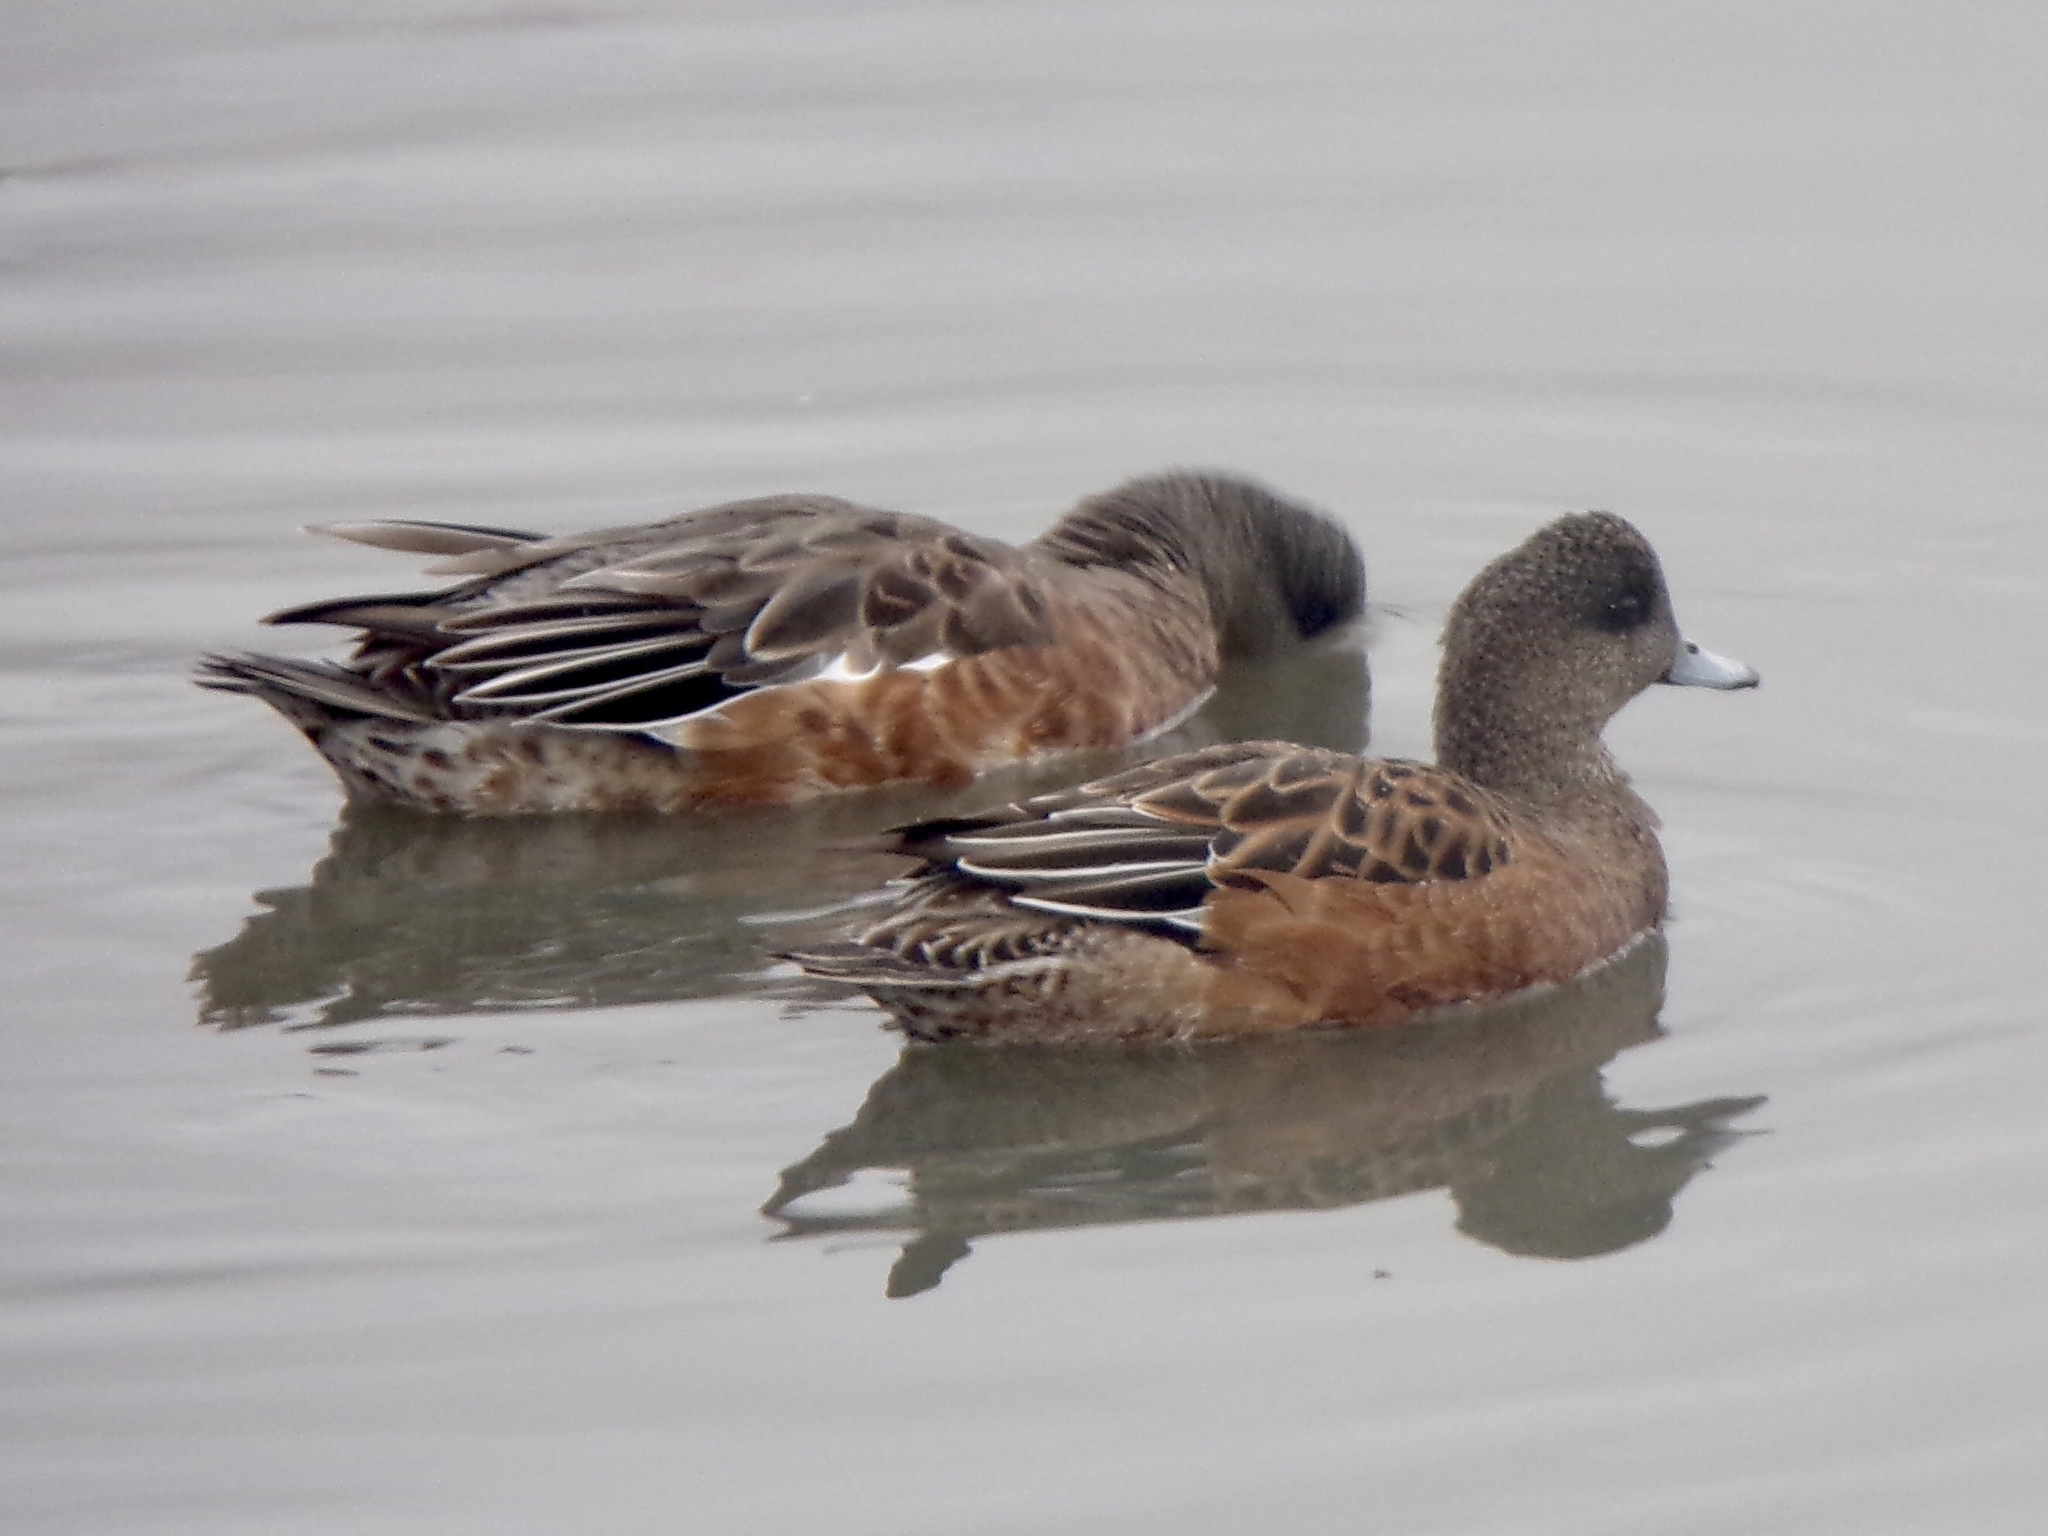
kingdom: Animalia
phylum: Chordata
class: Aves
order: Anseriformes
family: Anatidae
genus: Mareca
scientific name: Mareca americana
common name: American wigeon
